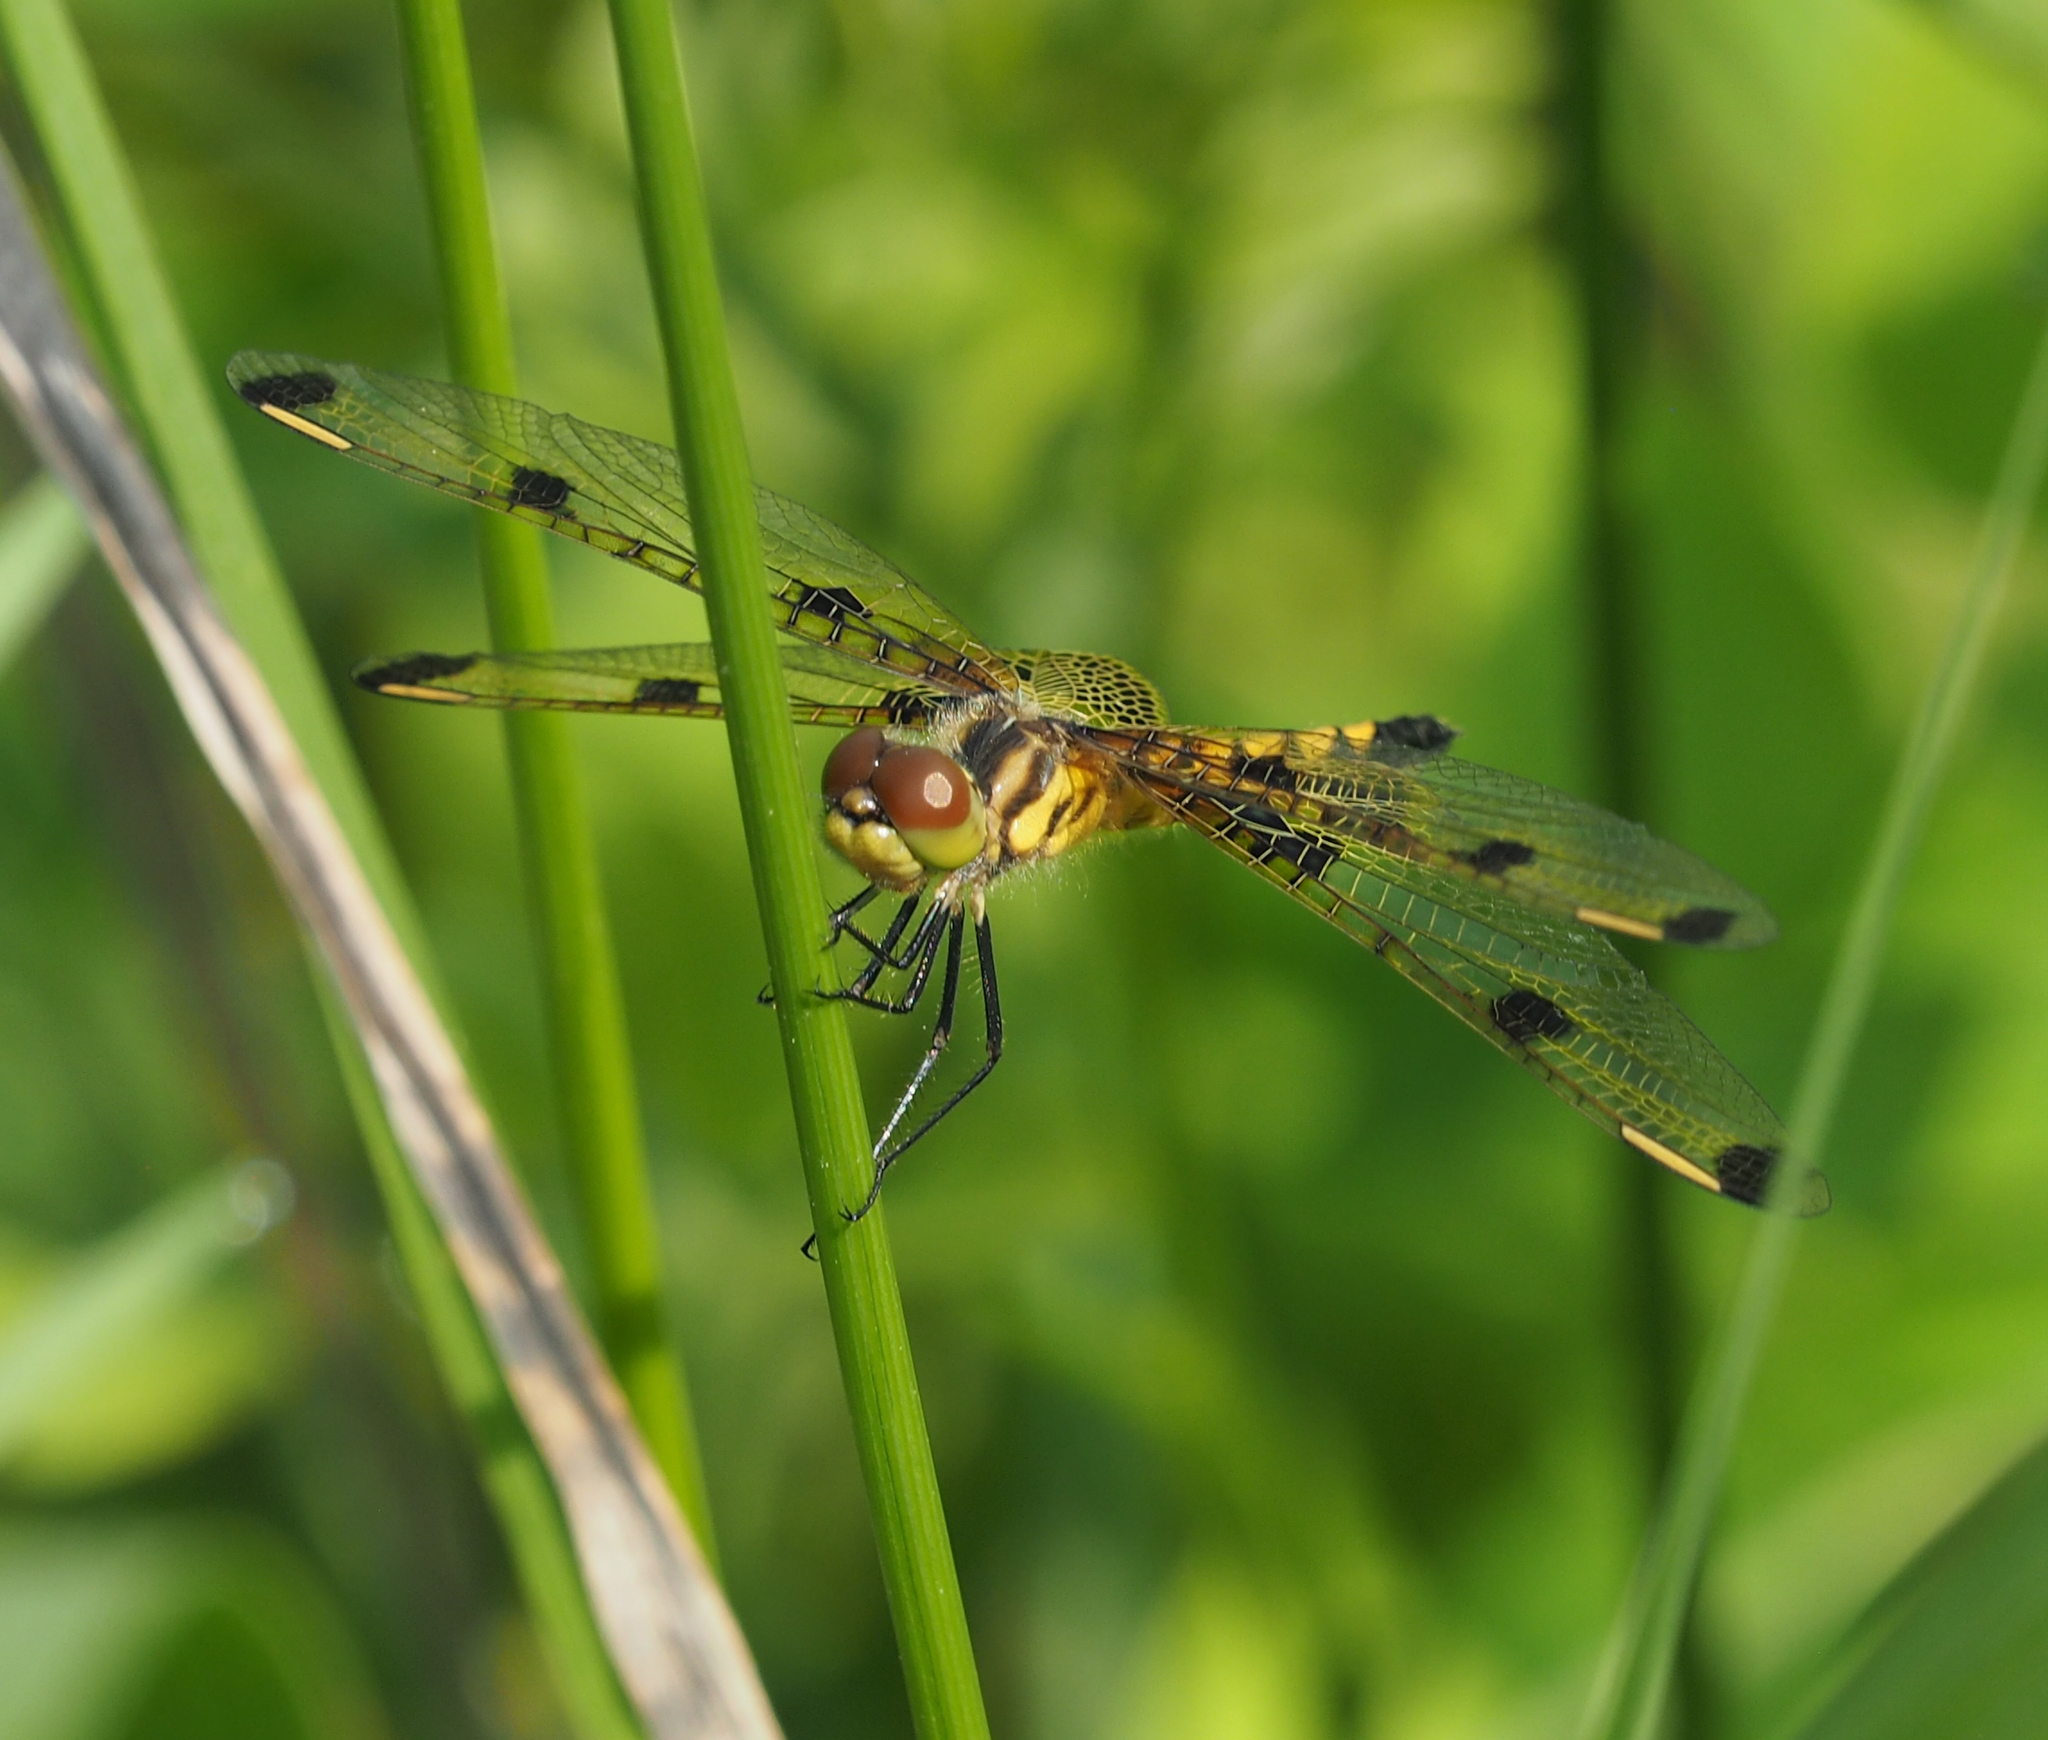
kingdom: Animalia
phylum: Arthropoda
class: Insecta
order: Odonata
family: Libellulidae
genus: Celithemis
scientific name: Celithemis elisa
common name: Calico pennant
